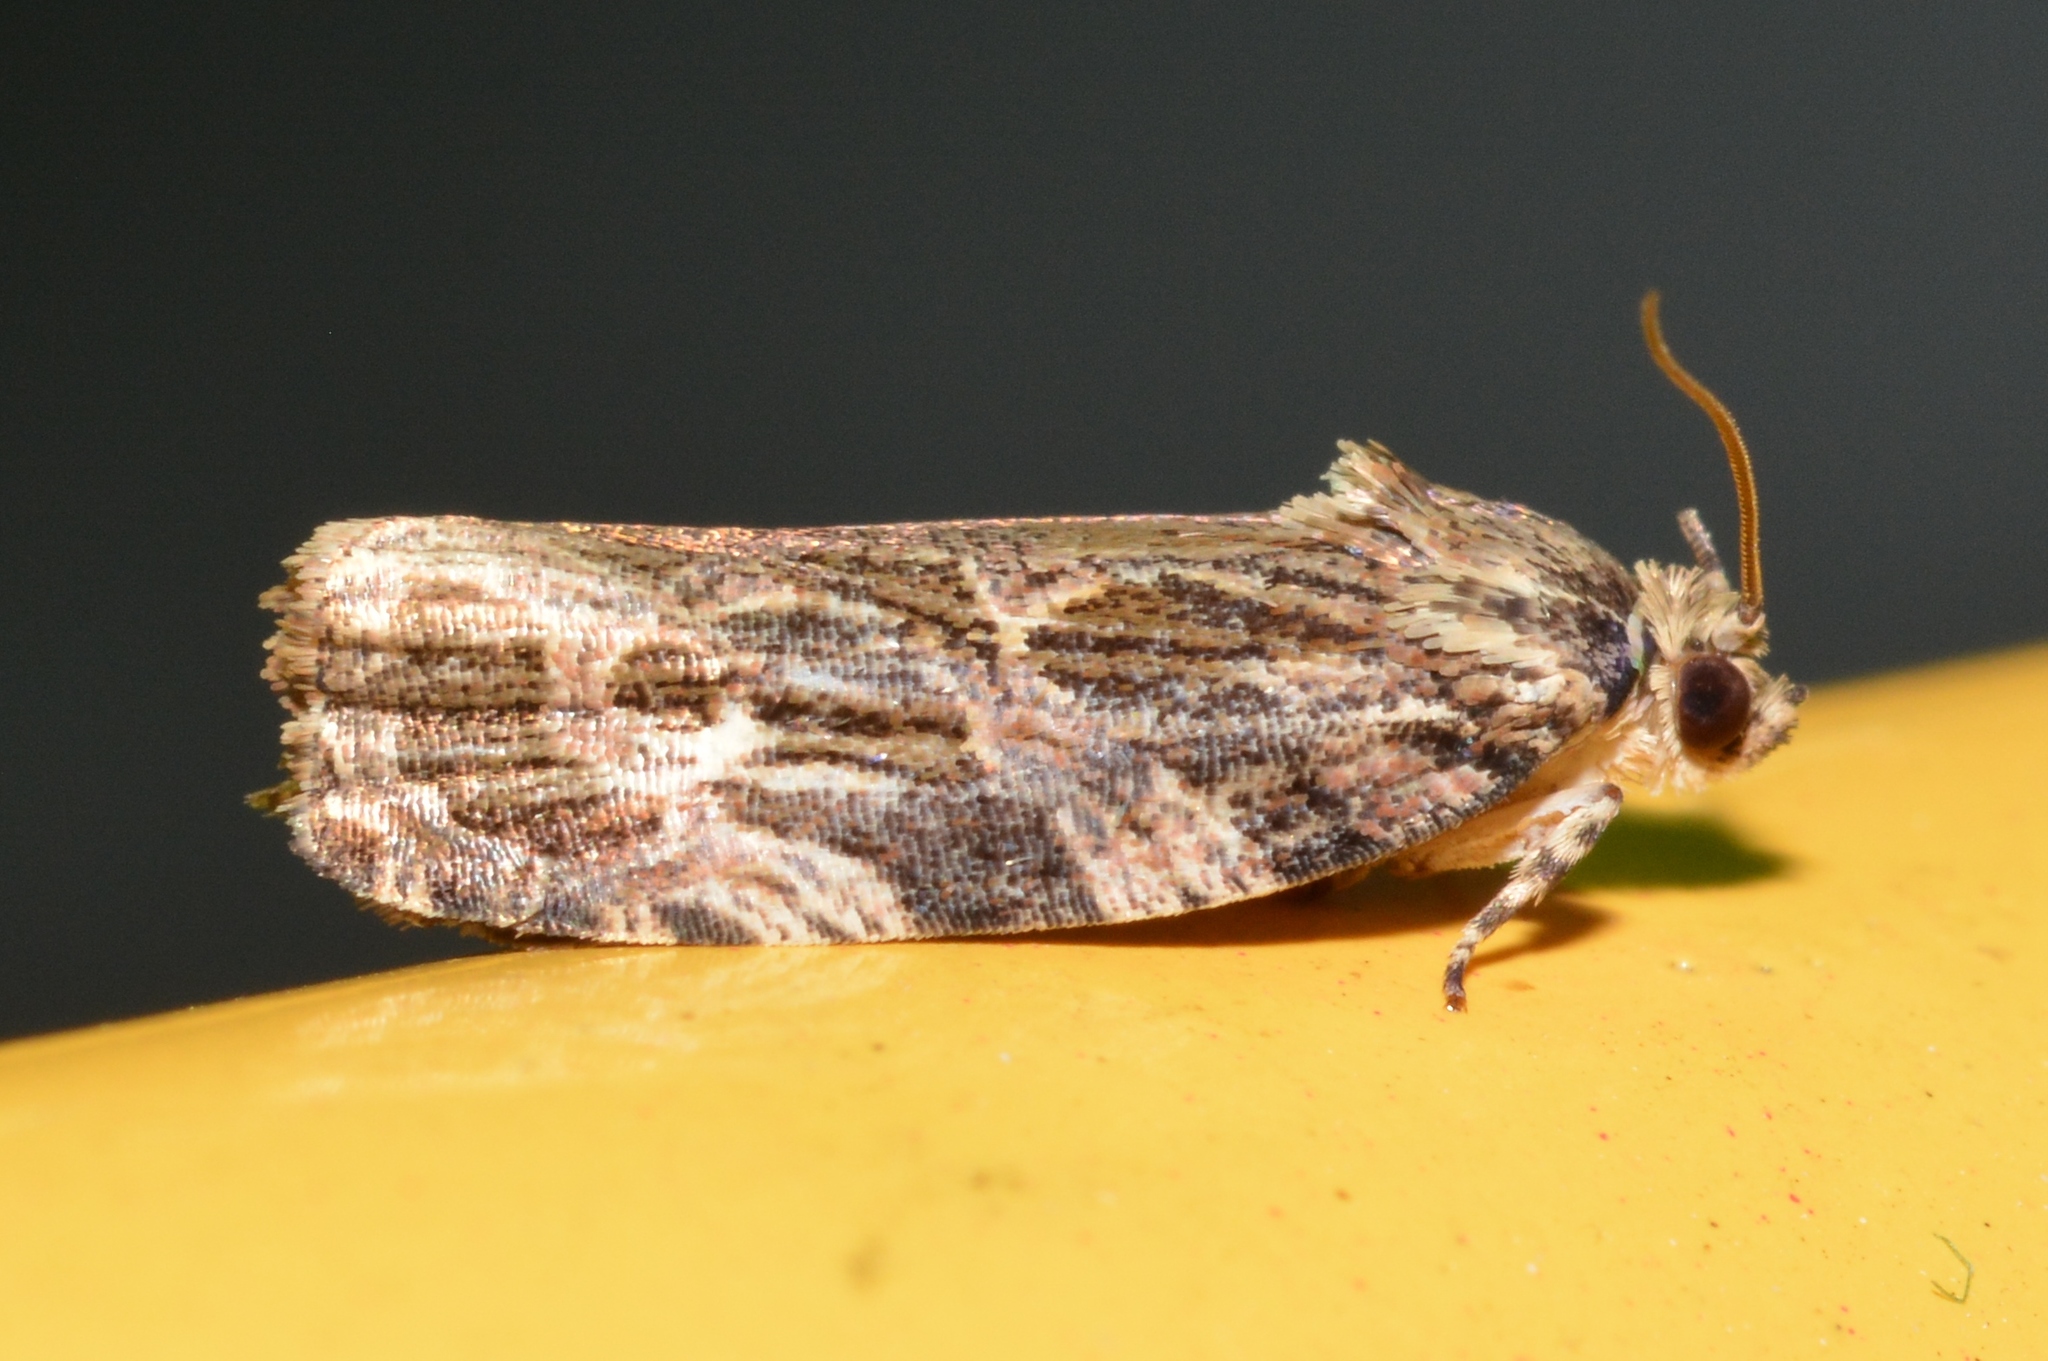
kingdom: Animalia
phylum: Arthropoda
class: Insecta
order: Lepidoptera
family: Tortricidae
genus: Phaecasiophora
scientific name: Phaecasiophora confixana
